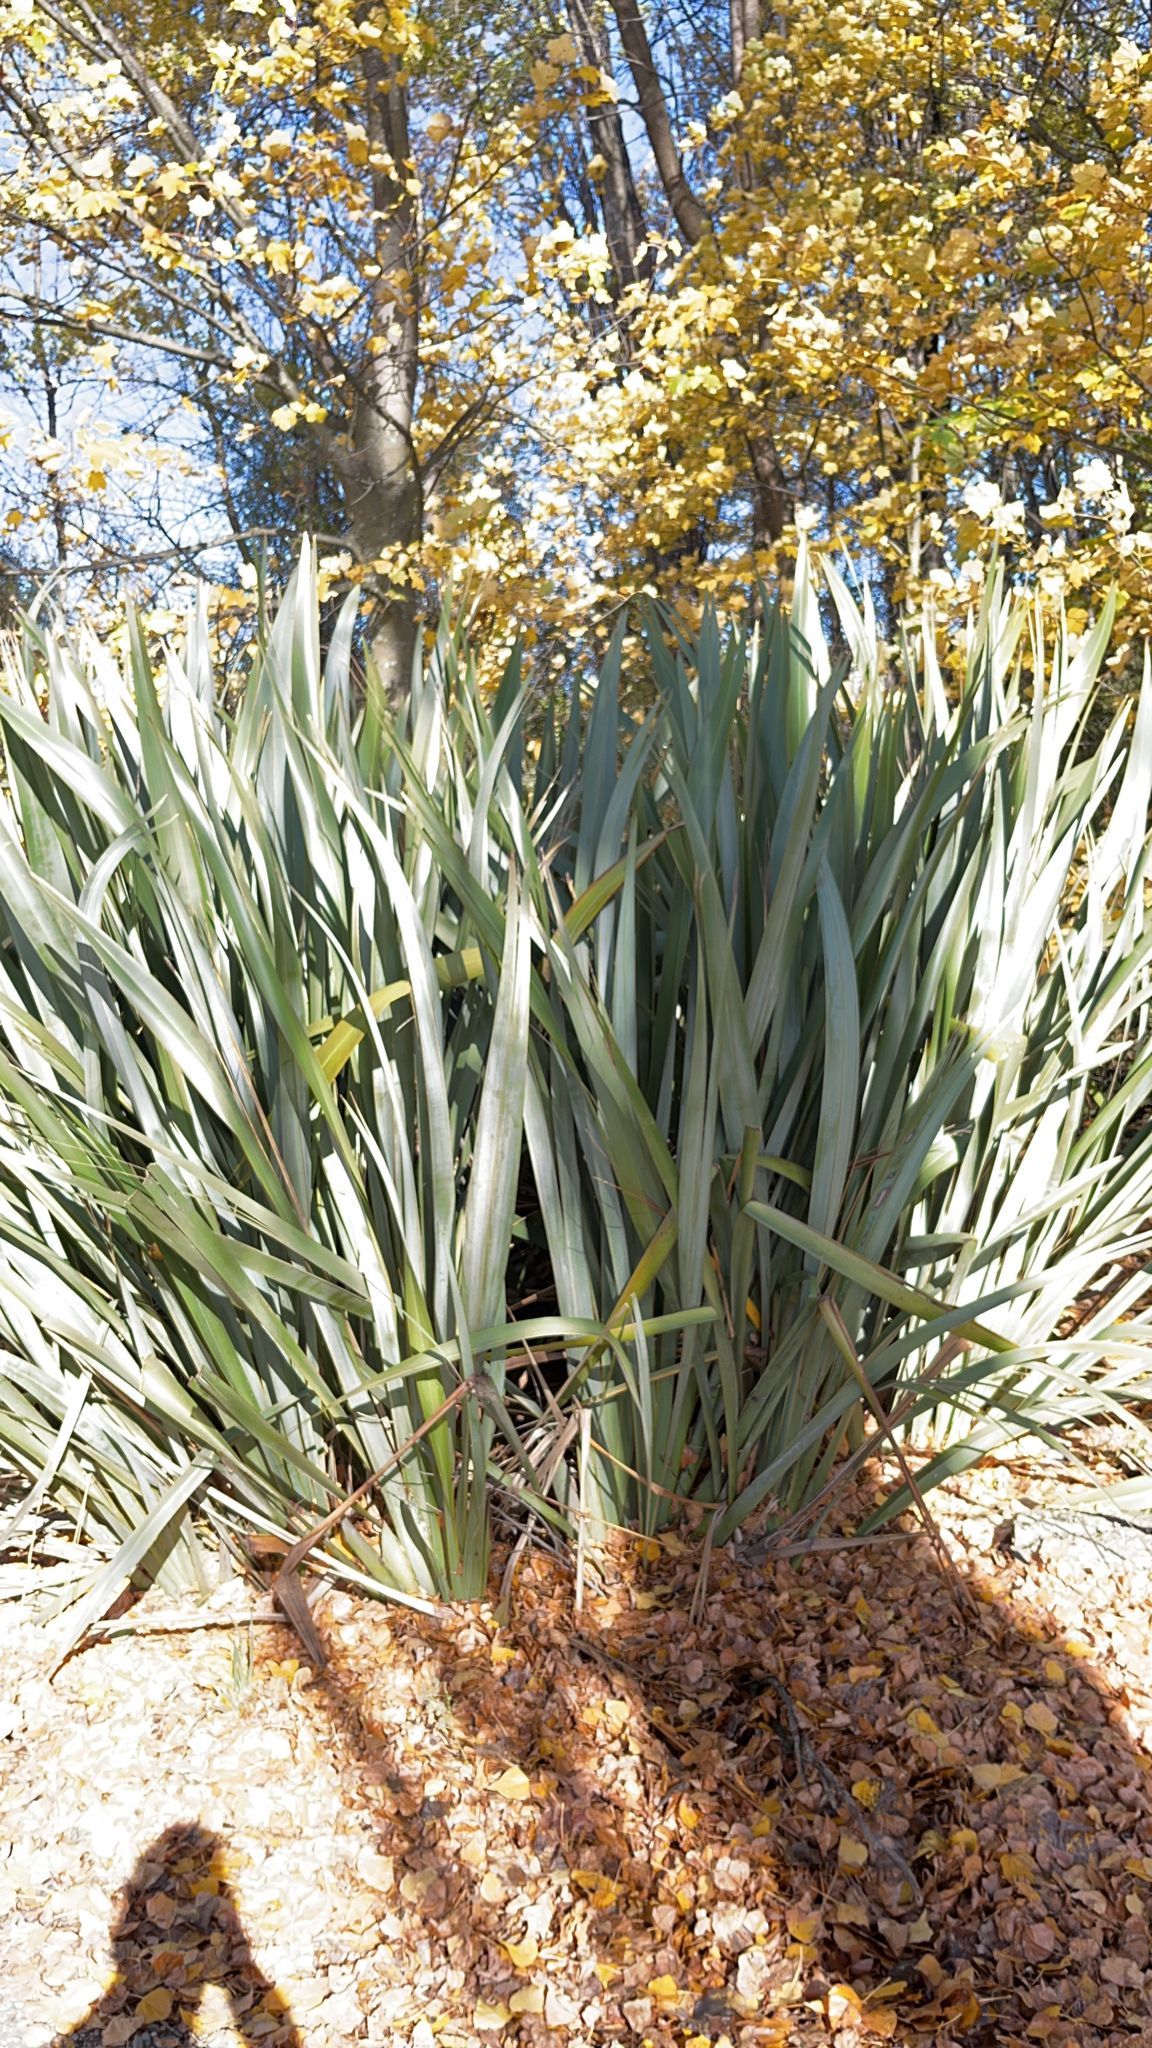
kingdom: Plantae
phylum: Tracheophyta
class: Liliopsida
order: Asparagales
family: Asphodelaceae
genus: Phormium
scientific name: Phormium tenax
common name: New zealand flax
